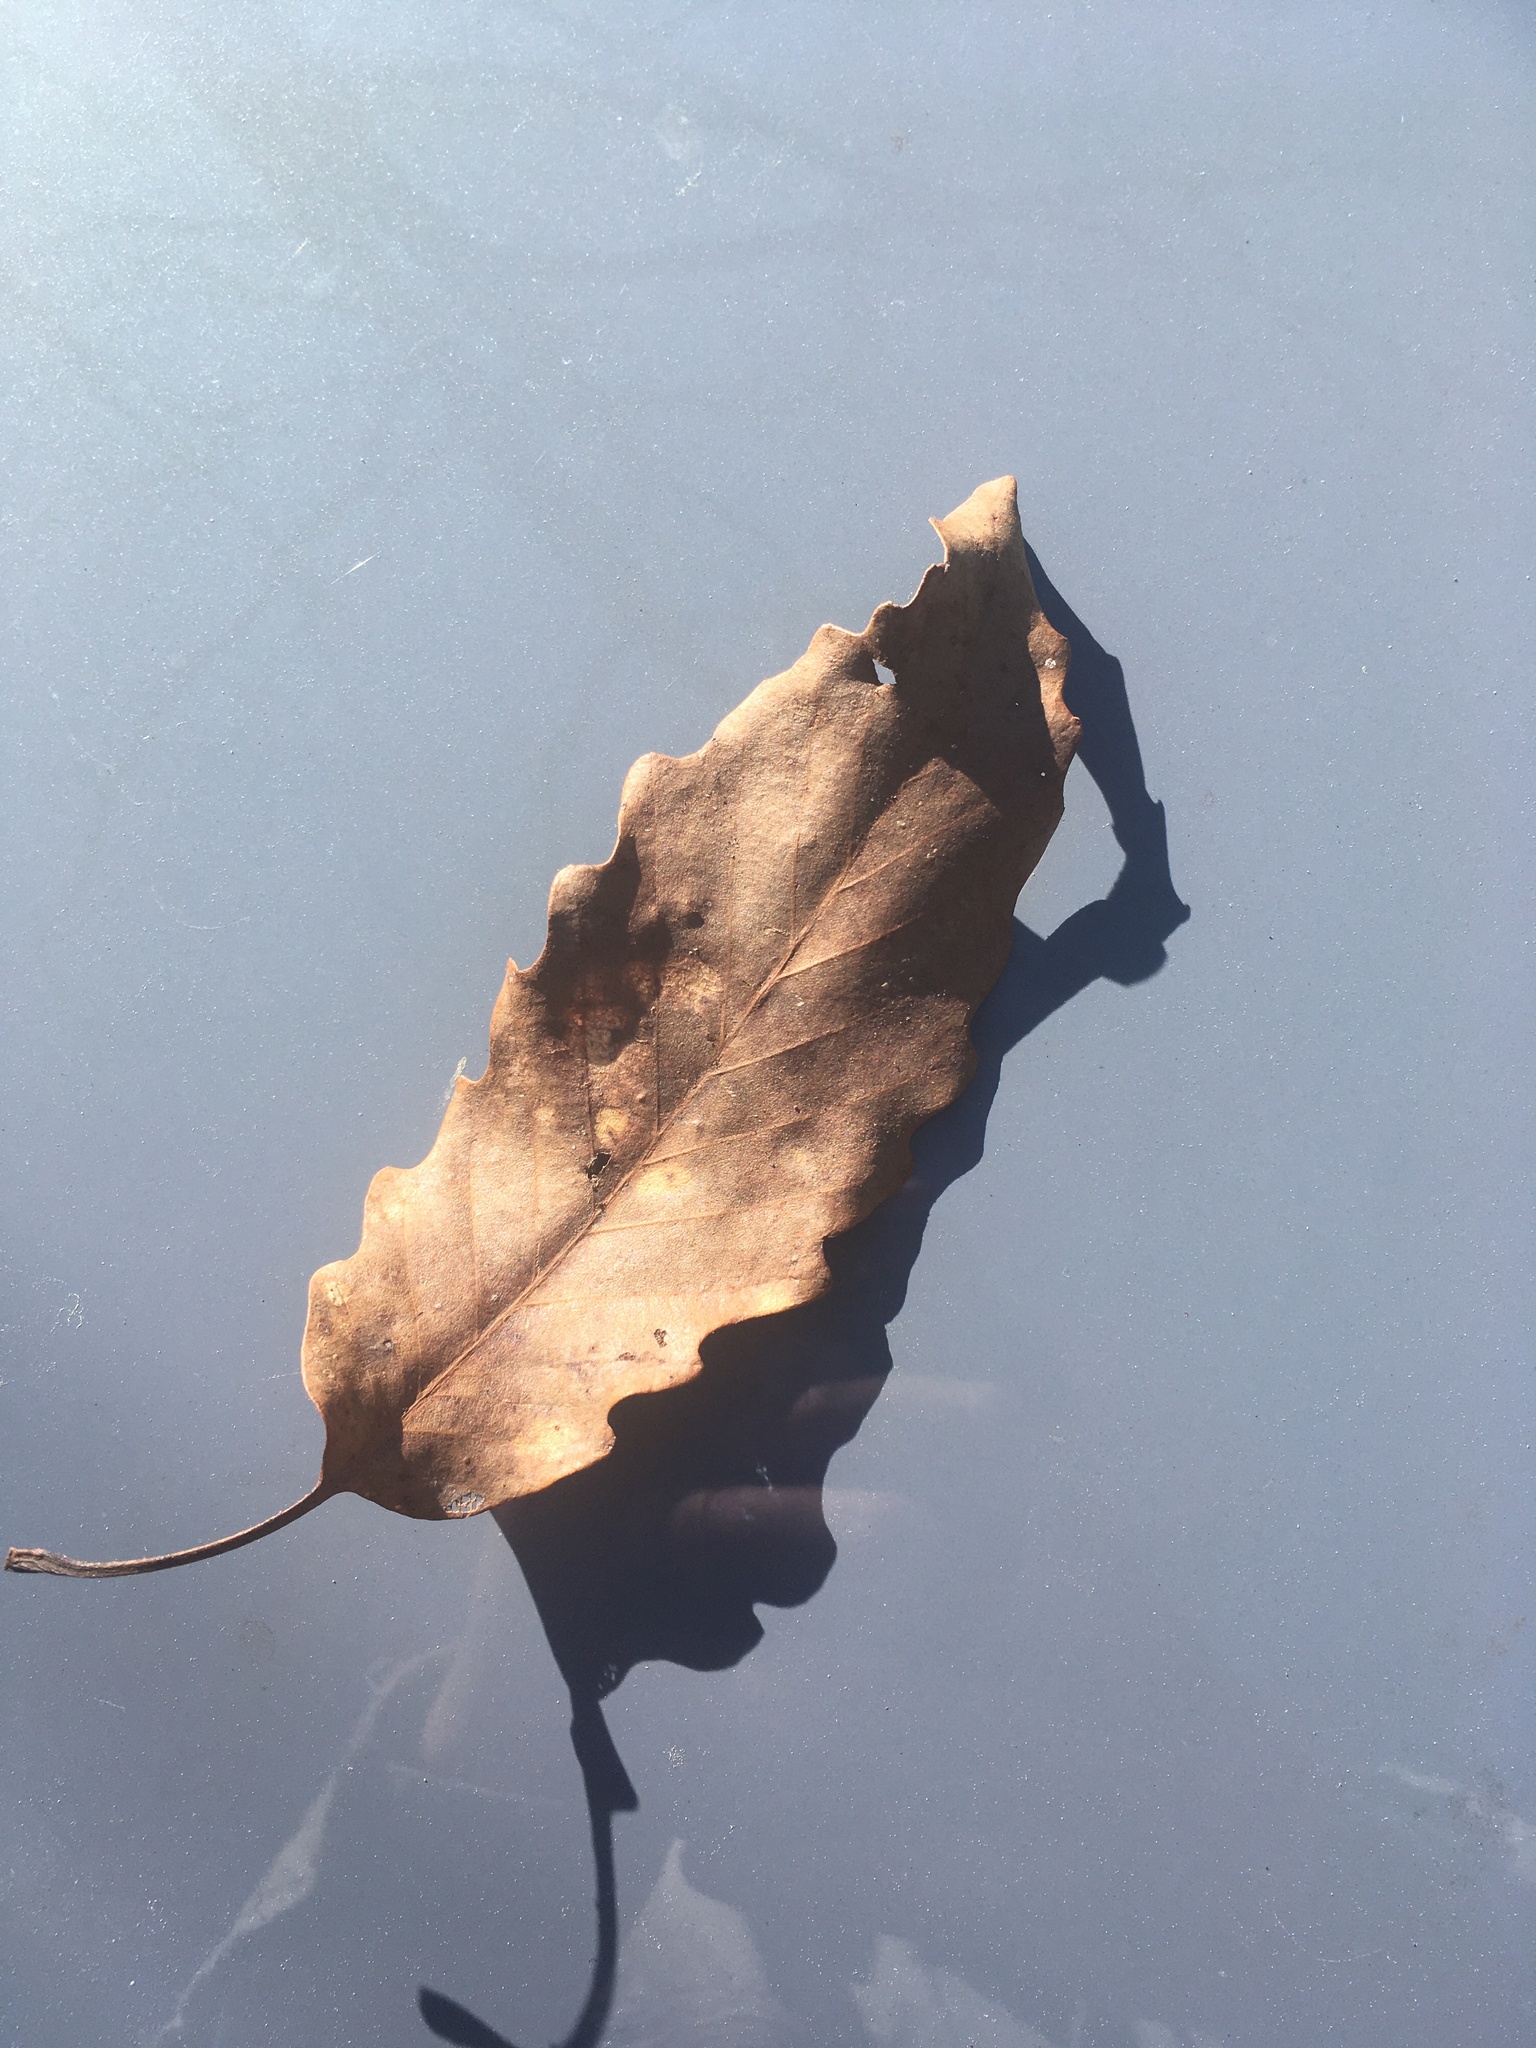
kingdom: Plantae
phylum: Tracheophyta
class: Magnoliopsida
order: Fagales
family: Fagaceae
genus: Quercus
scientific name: Quercus montana
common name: Chestnut oak
